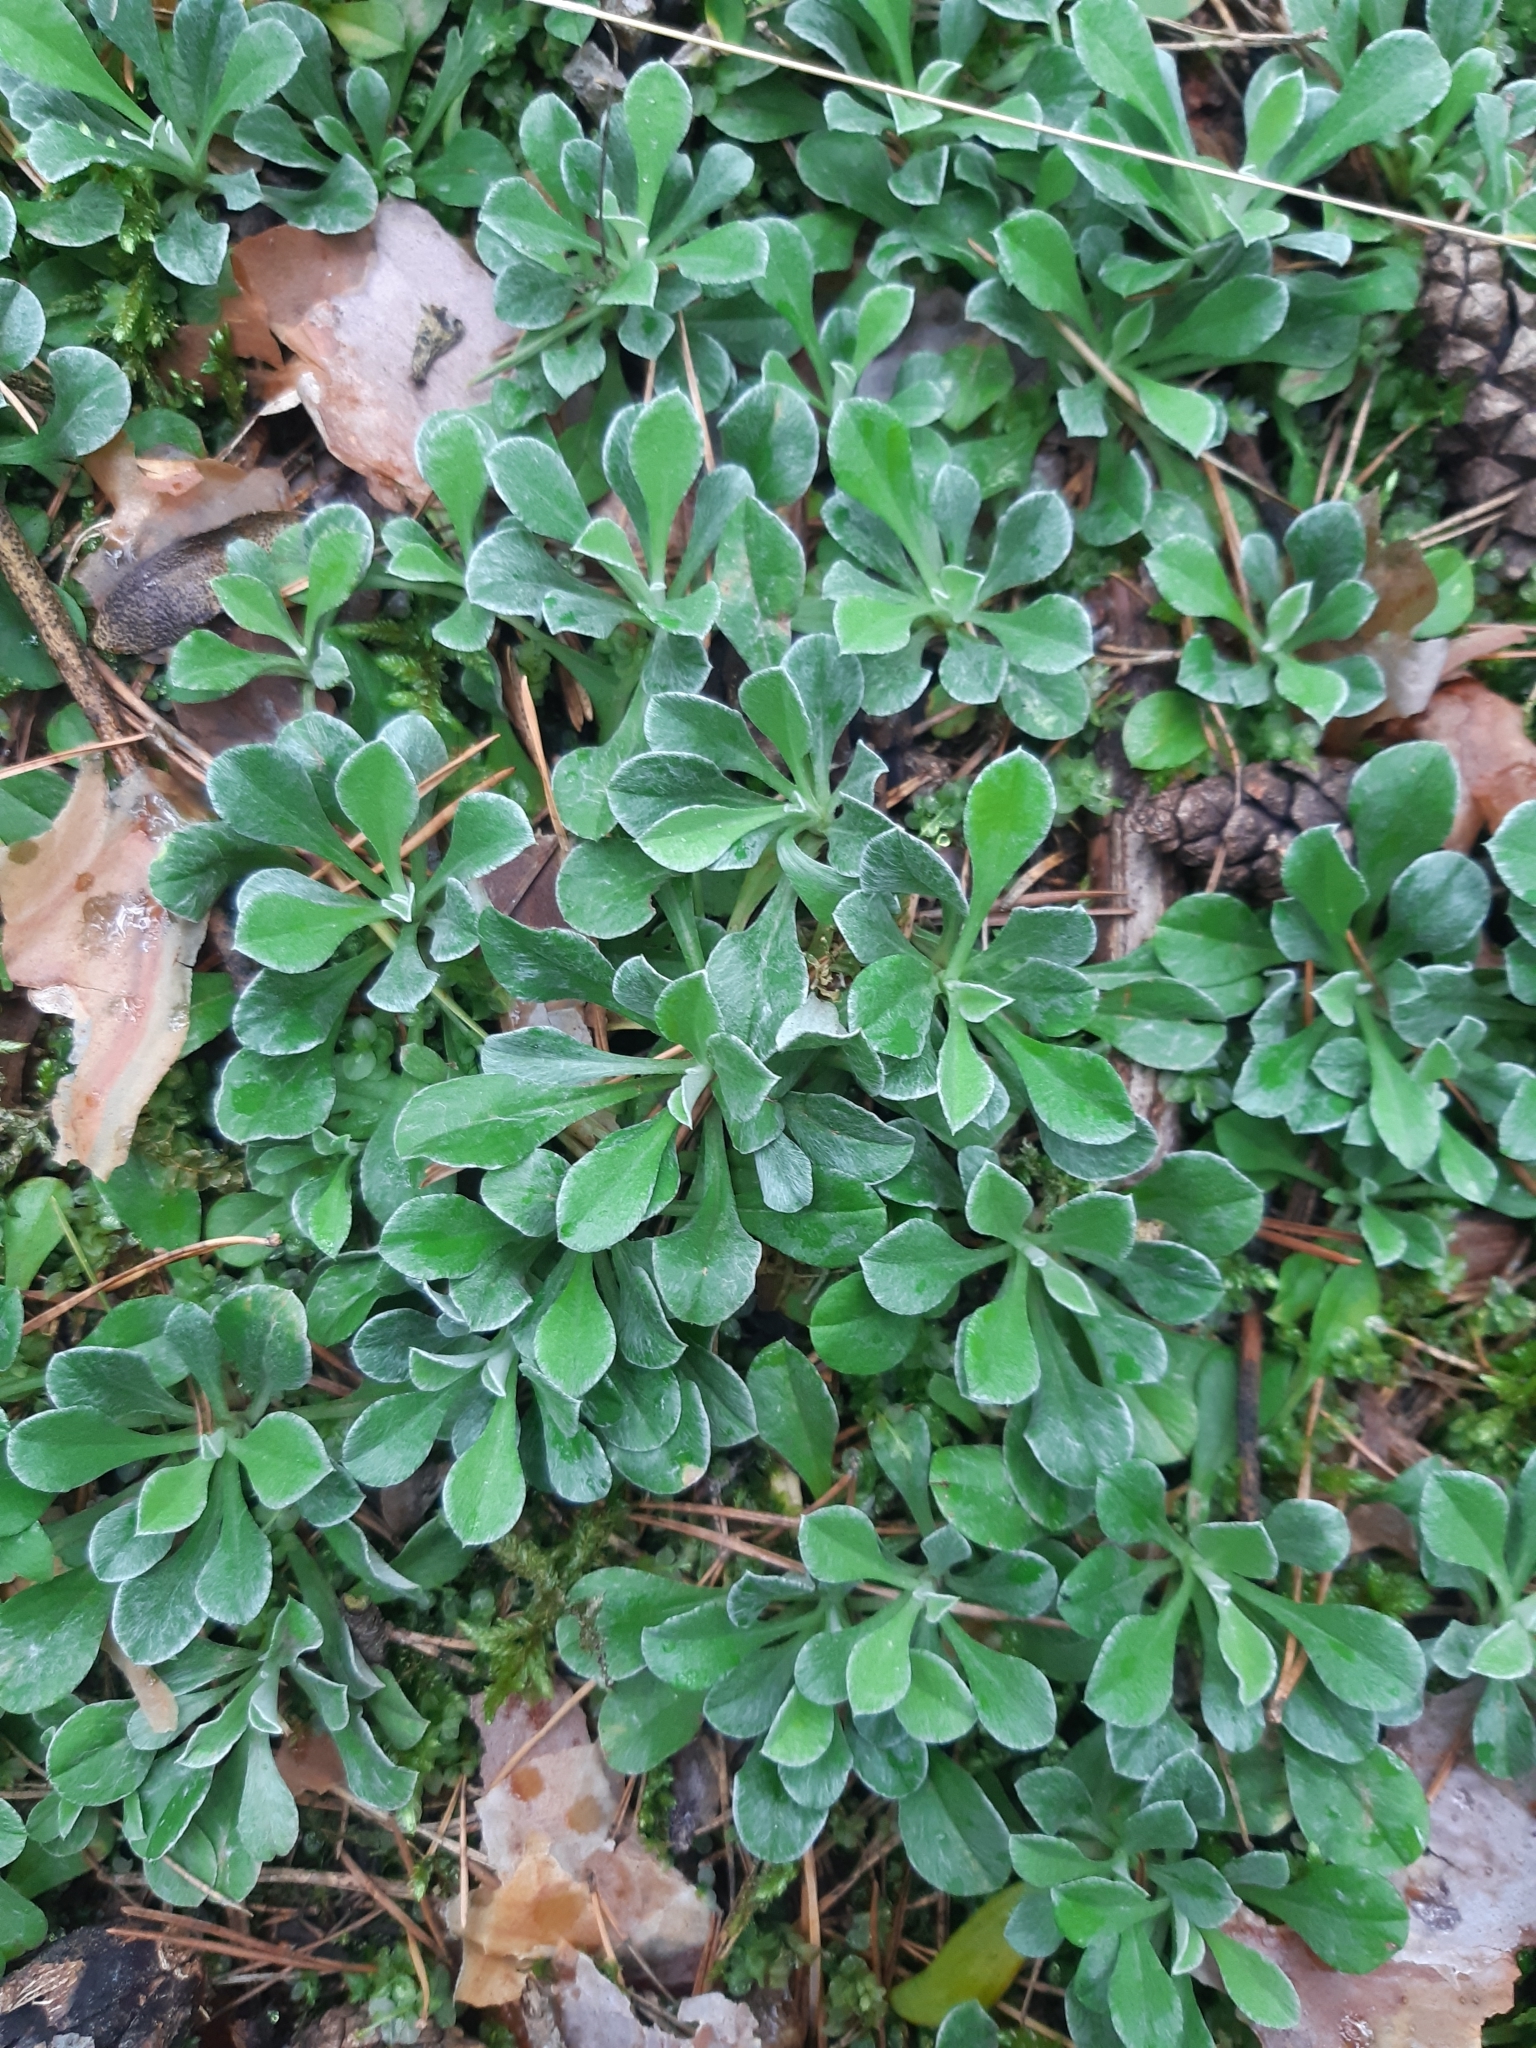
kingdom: Plantae
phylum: Tracheophyta
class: Magnoliopsida
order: Asterales
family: Asteraceae
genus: Antennaria
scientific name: Antennaria dioica
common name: Mountain everlasting
